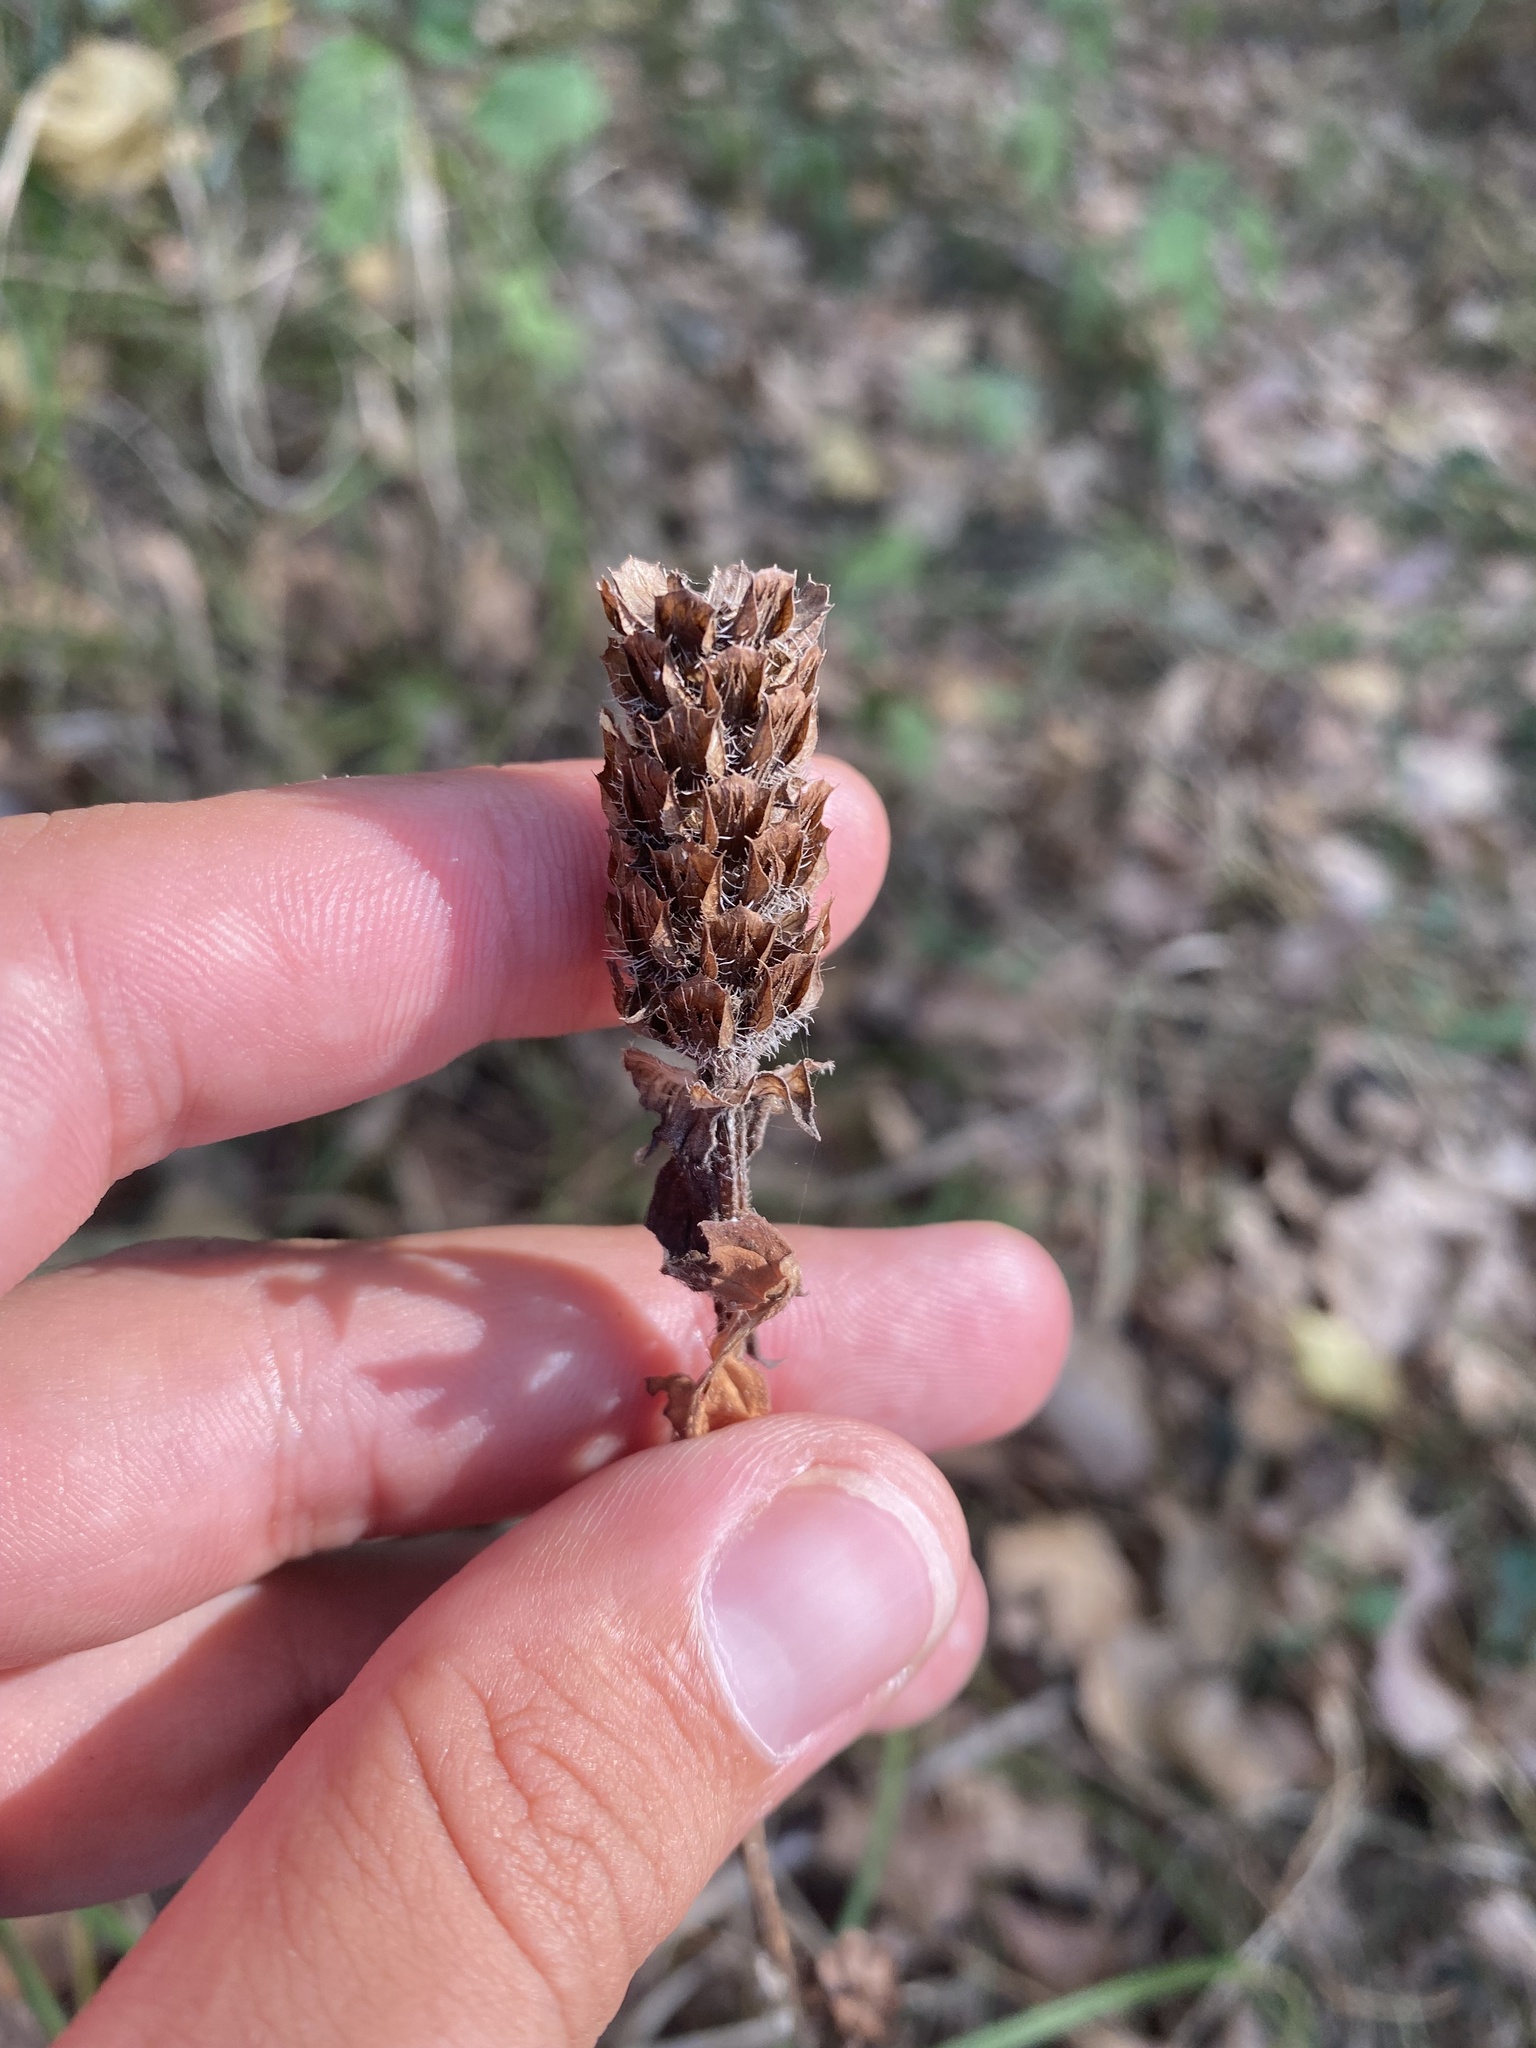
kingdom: Plantae
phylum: Tracheophyta
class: Magnoliopsida
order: Lamiales
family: Lamiaceae
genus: Prunella
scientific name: Prunella vulgaris
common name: Heal-all
